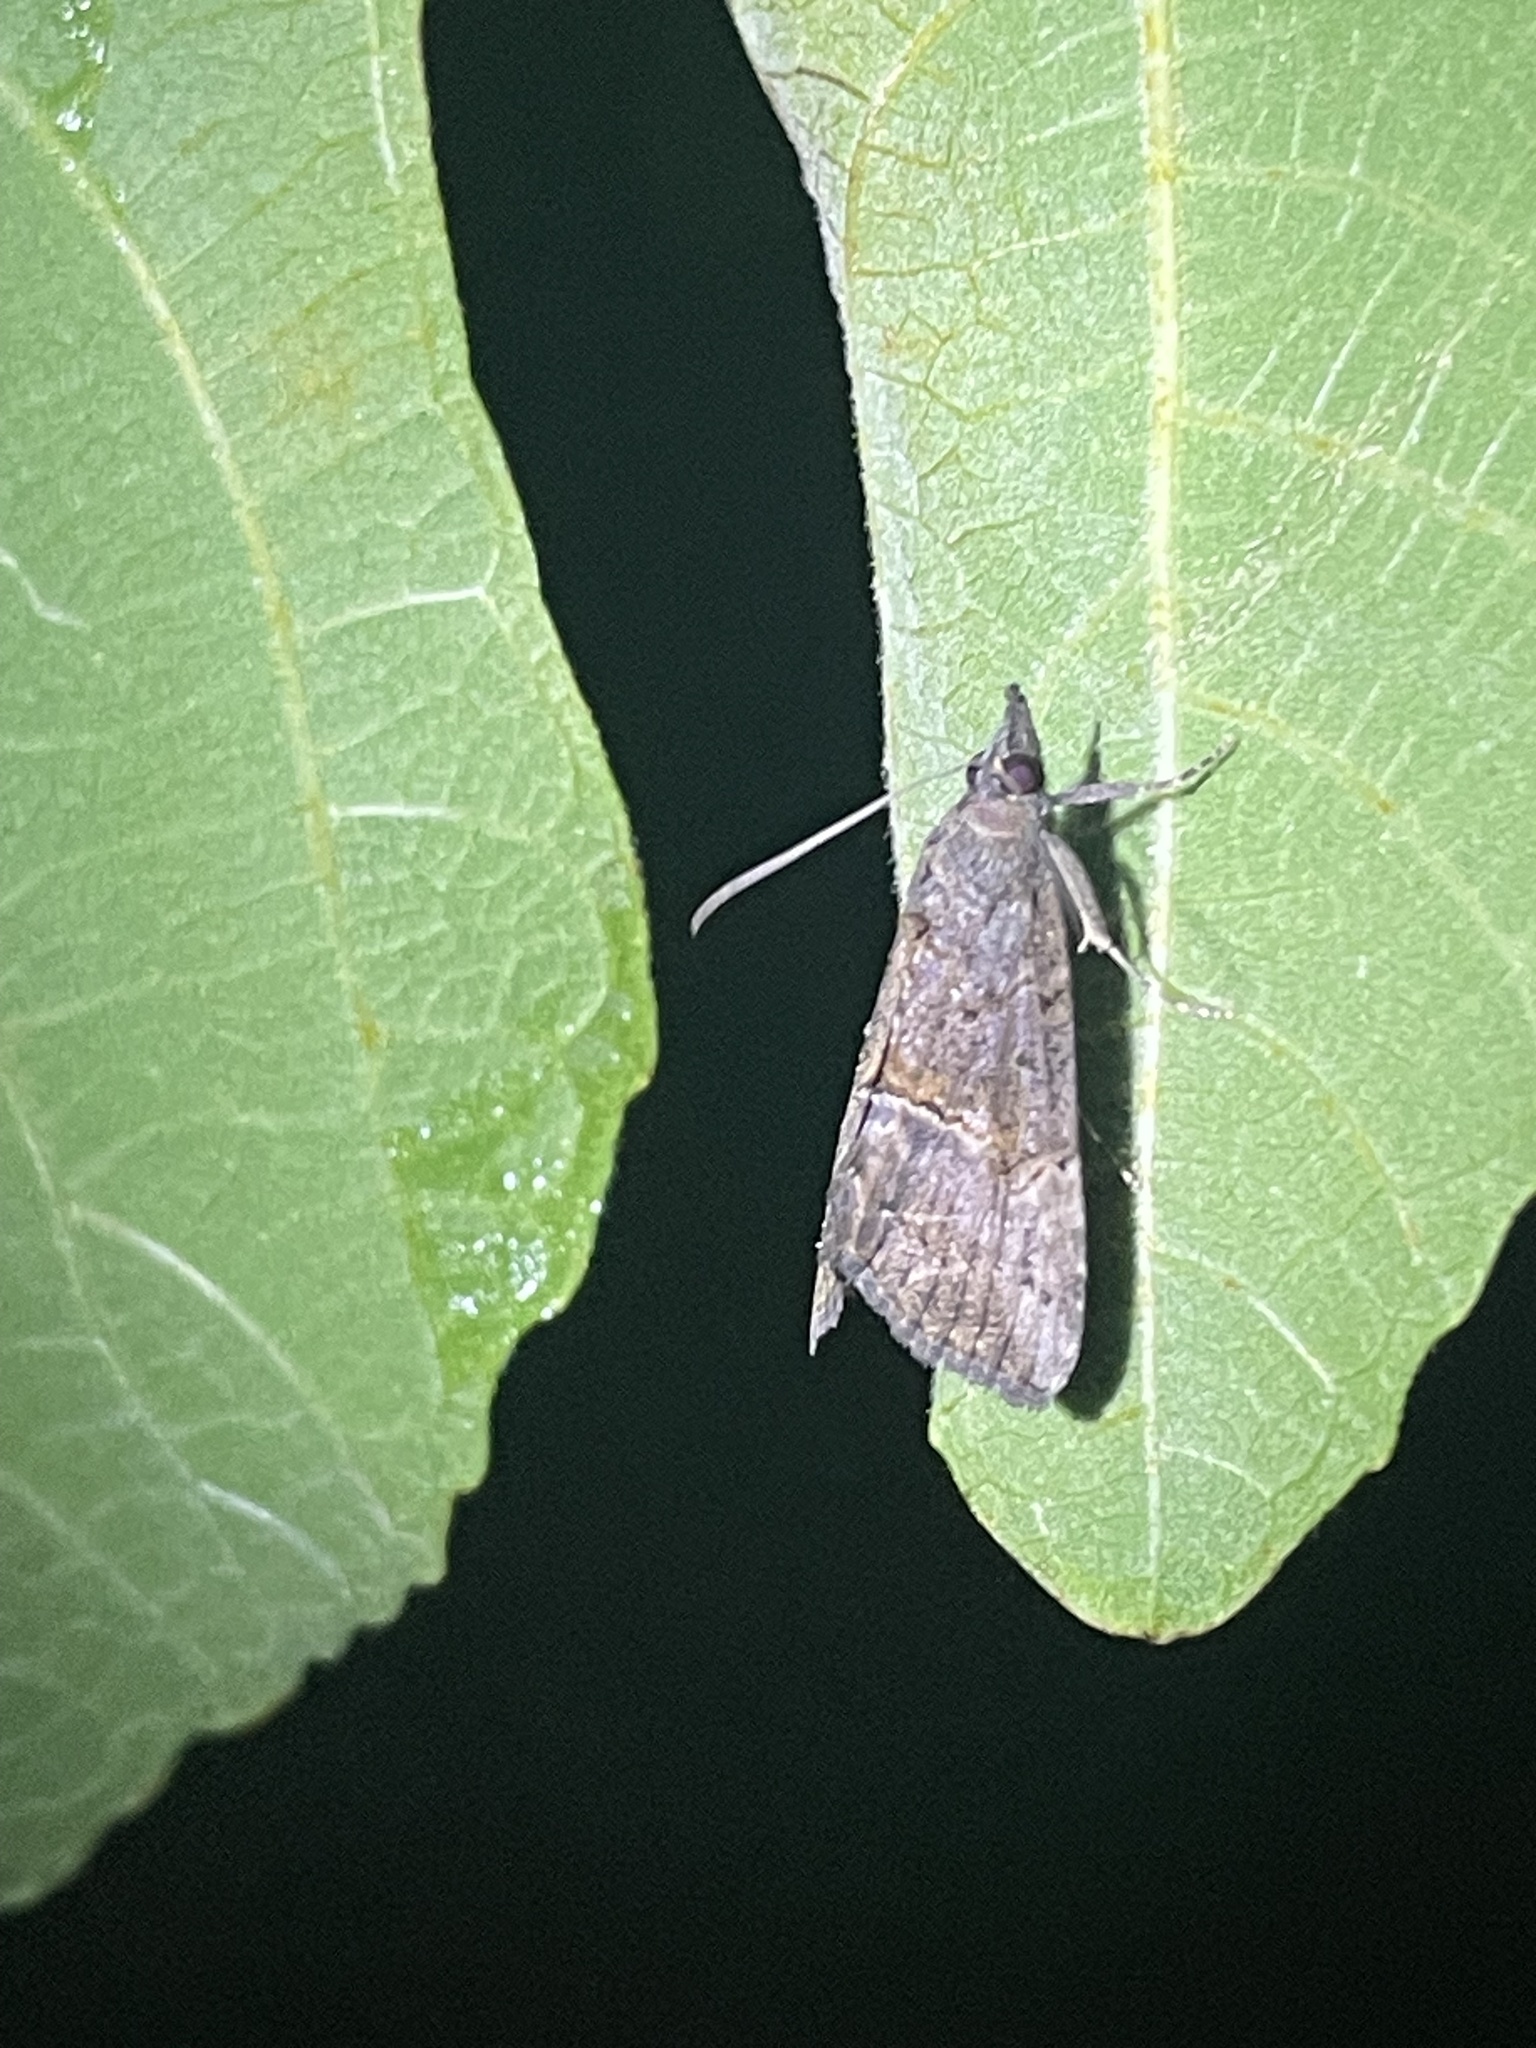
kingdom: Animalia
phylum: Arthropoda
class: Insecta
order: Lepidoptera
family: Erebidae
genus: Hypena
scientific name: Hypena scabra
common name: Green cloverworm
